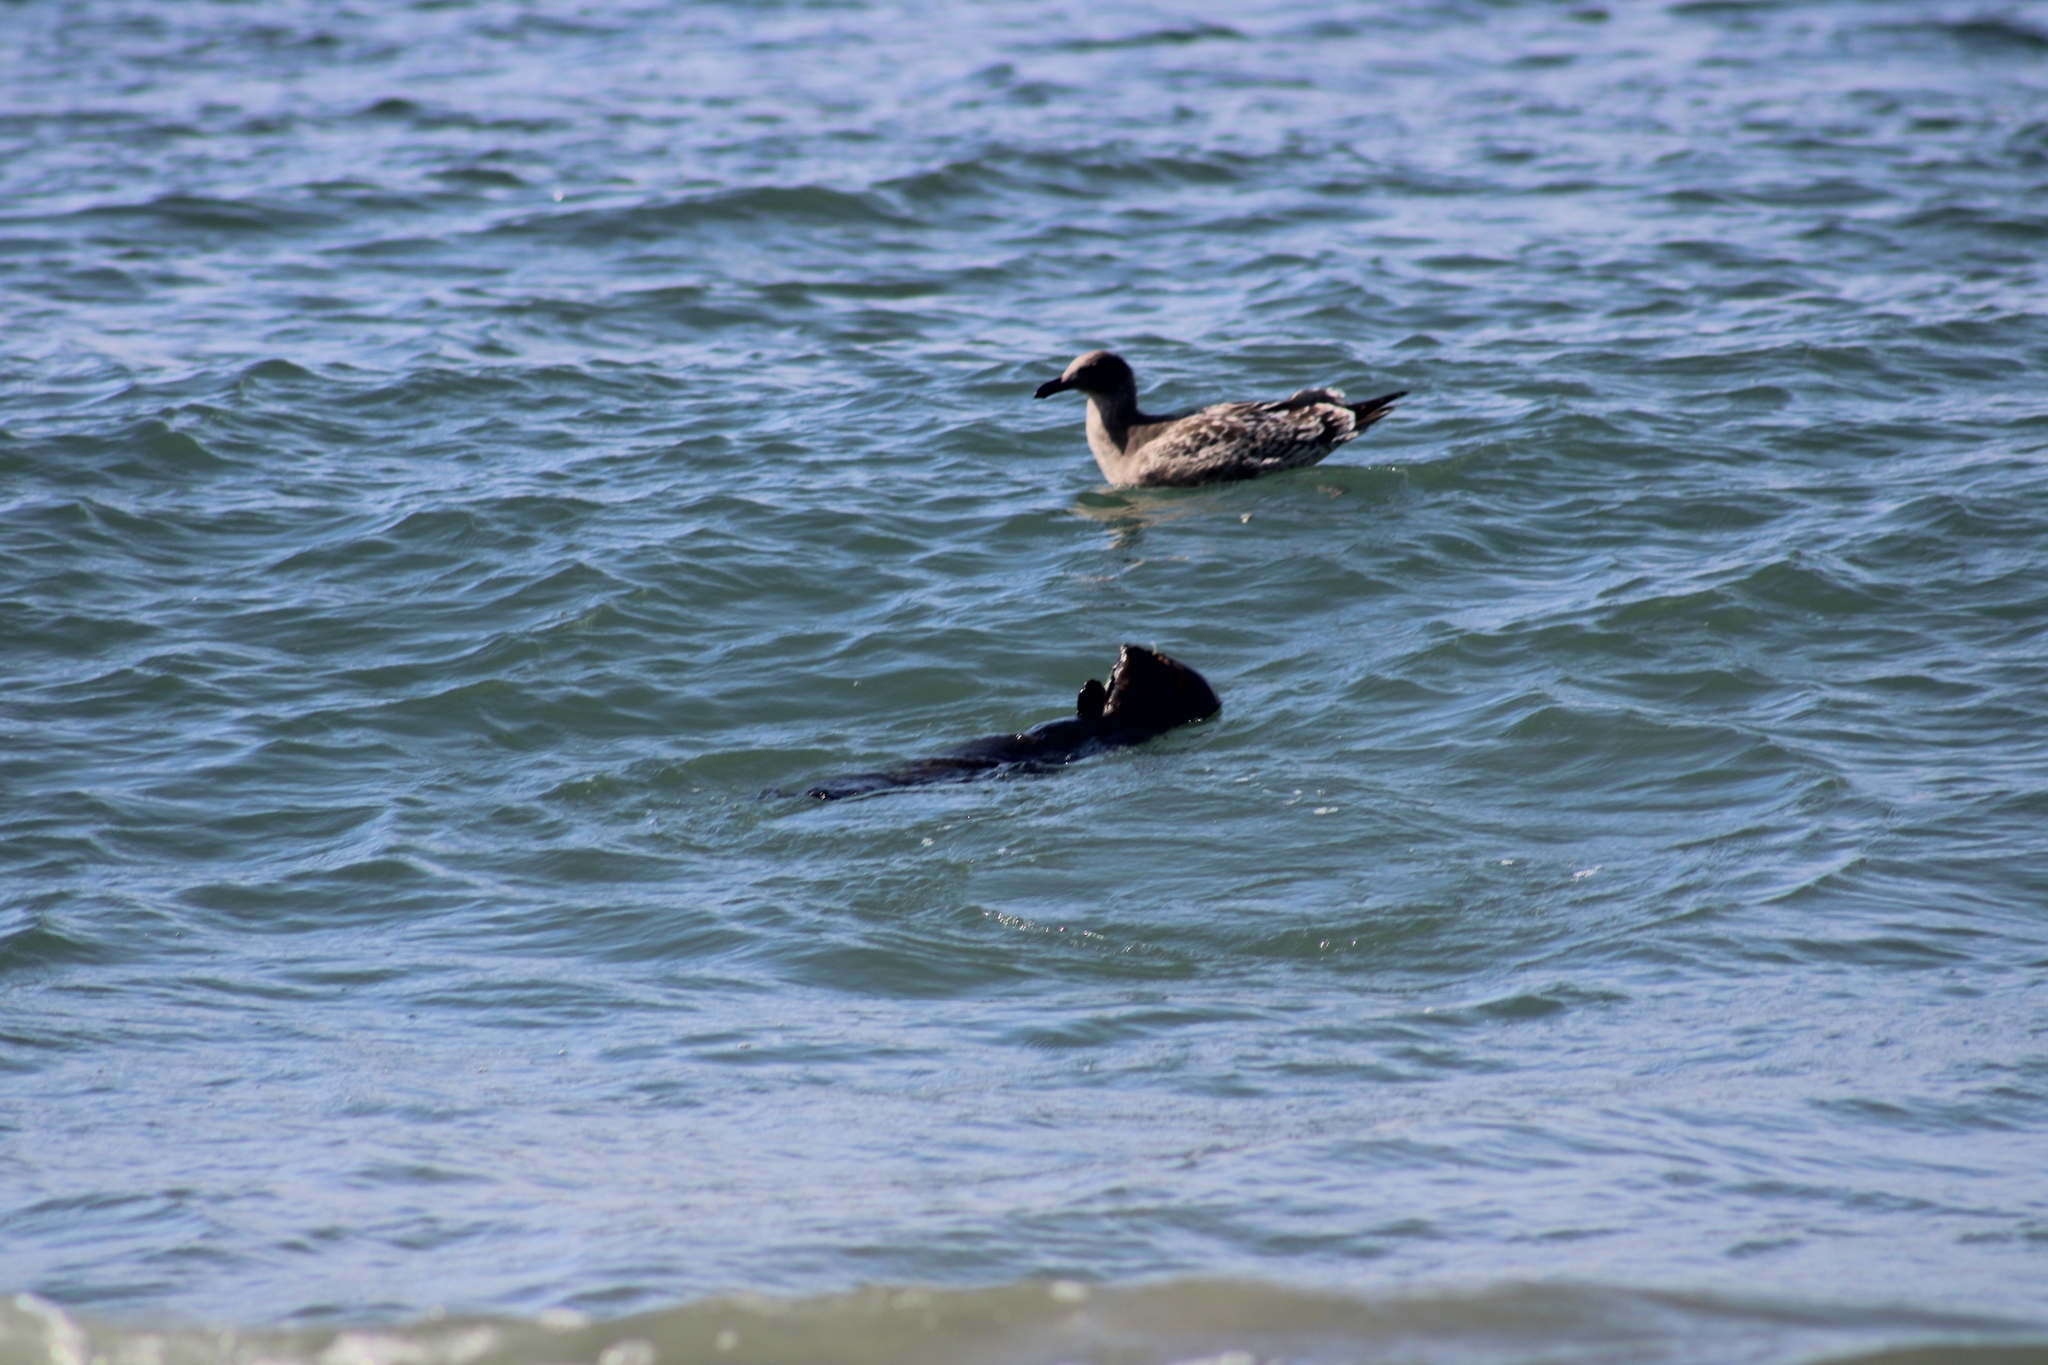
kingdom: Animalia
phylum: Chordata
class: Mammalia
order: Carnivora
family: Mustelidae
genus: Enhydra
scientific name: Enhydra lutris
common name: Sea otter
